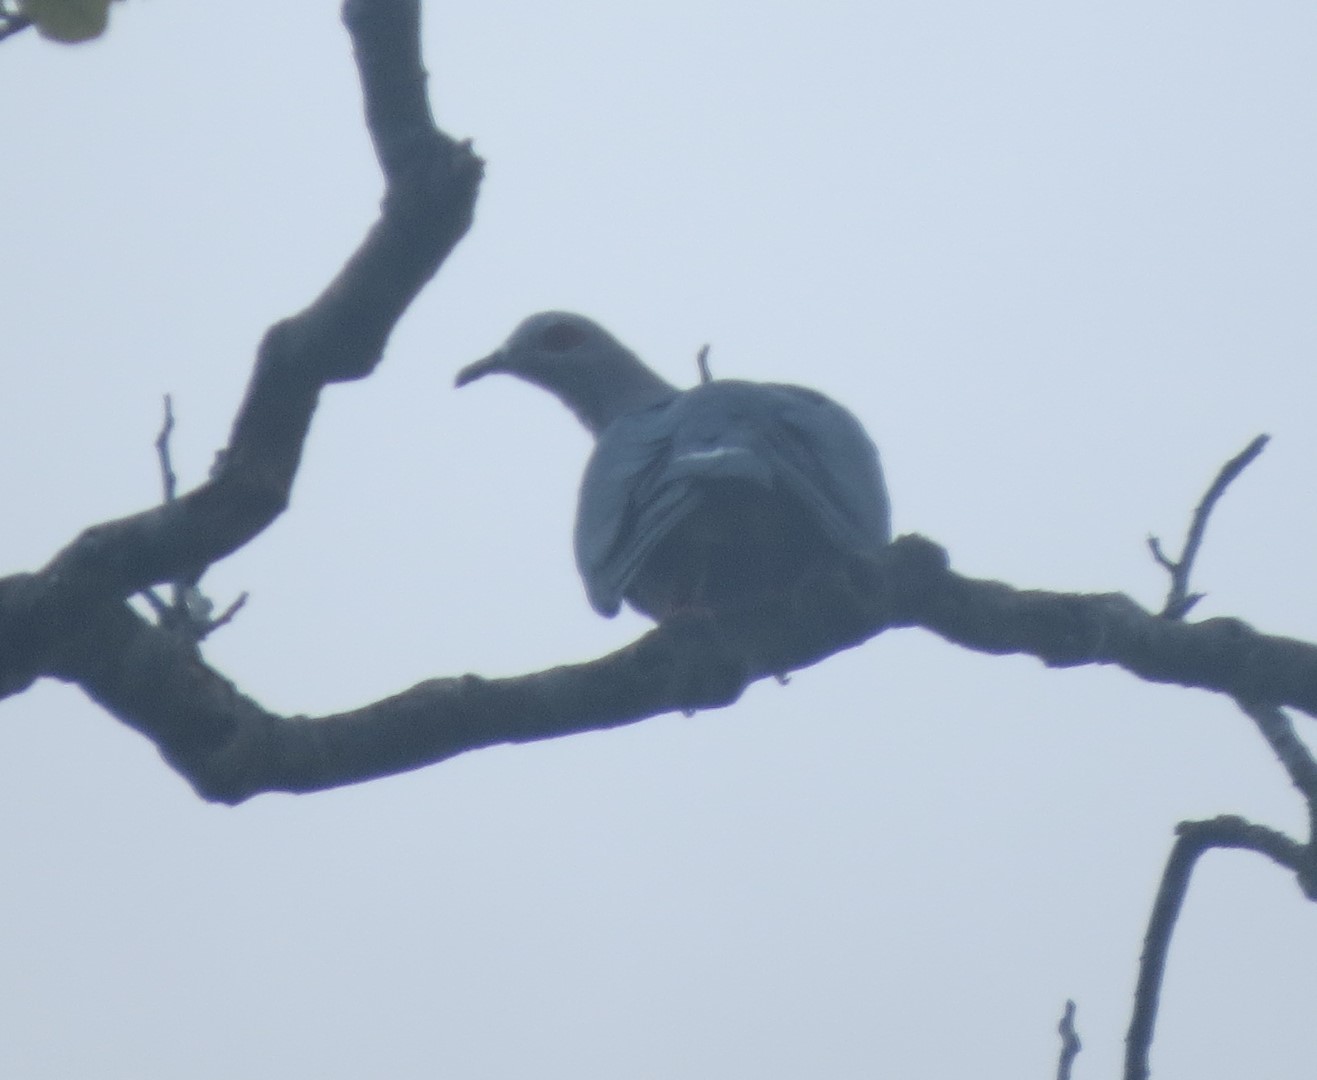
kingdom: Animalia
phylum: Chordata
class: Aves
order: Columbiformes
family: Columbidae
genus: Ducula
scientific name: Ducula pinon
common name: Pinon's imperial pigeon
